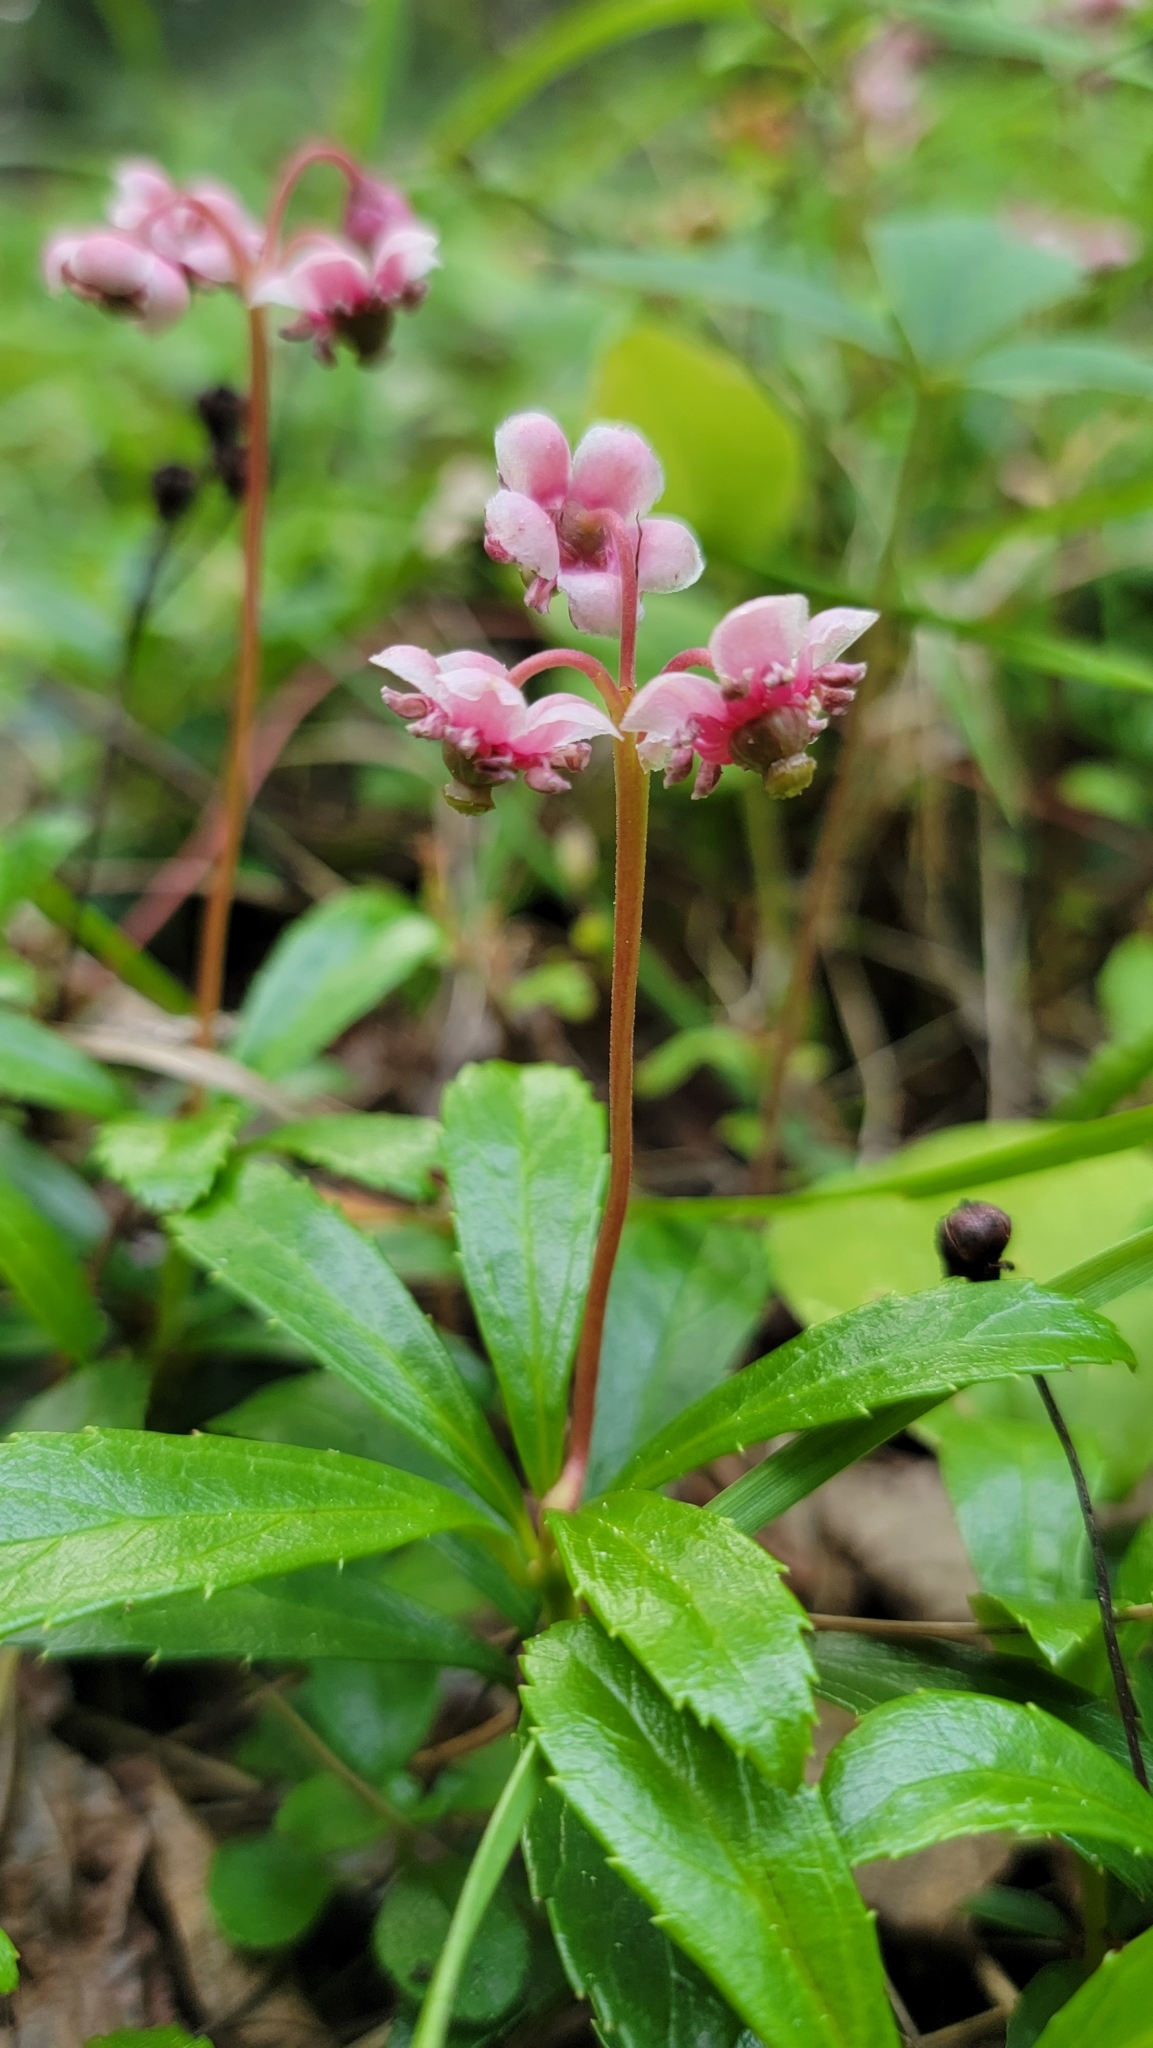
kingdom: Plantae
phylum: Tracheophyta
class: Magnoliopsida
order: Ericales
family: Ericaceae
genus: Chimaphila
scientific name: Chimaphila umbellata
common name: Pipsissewa
